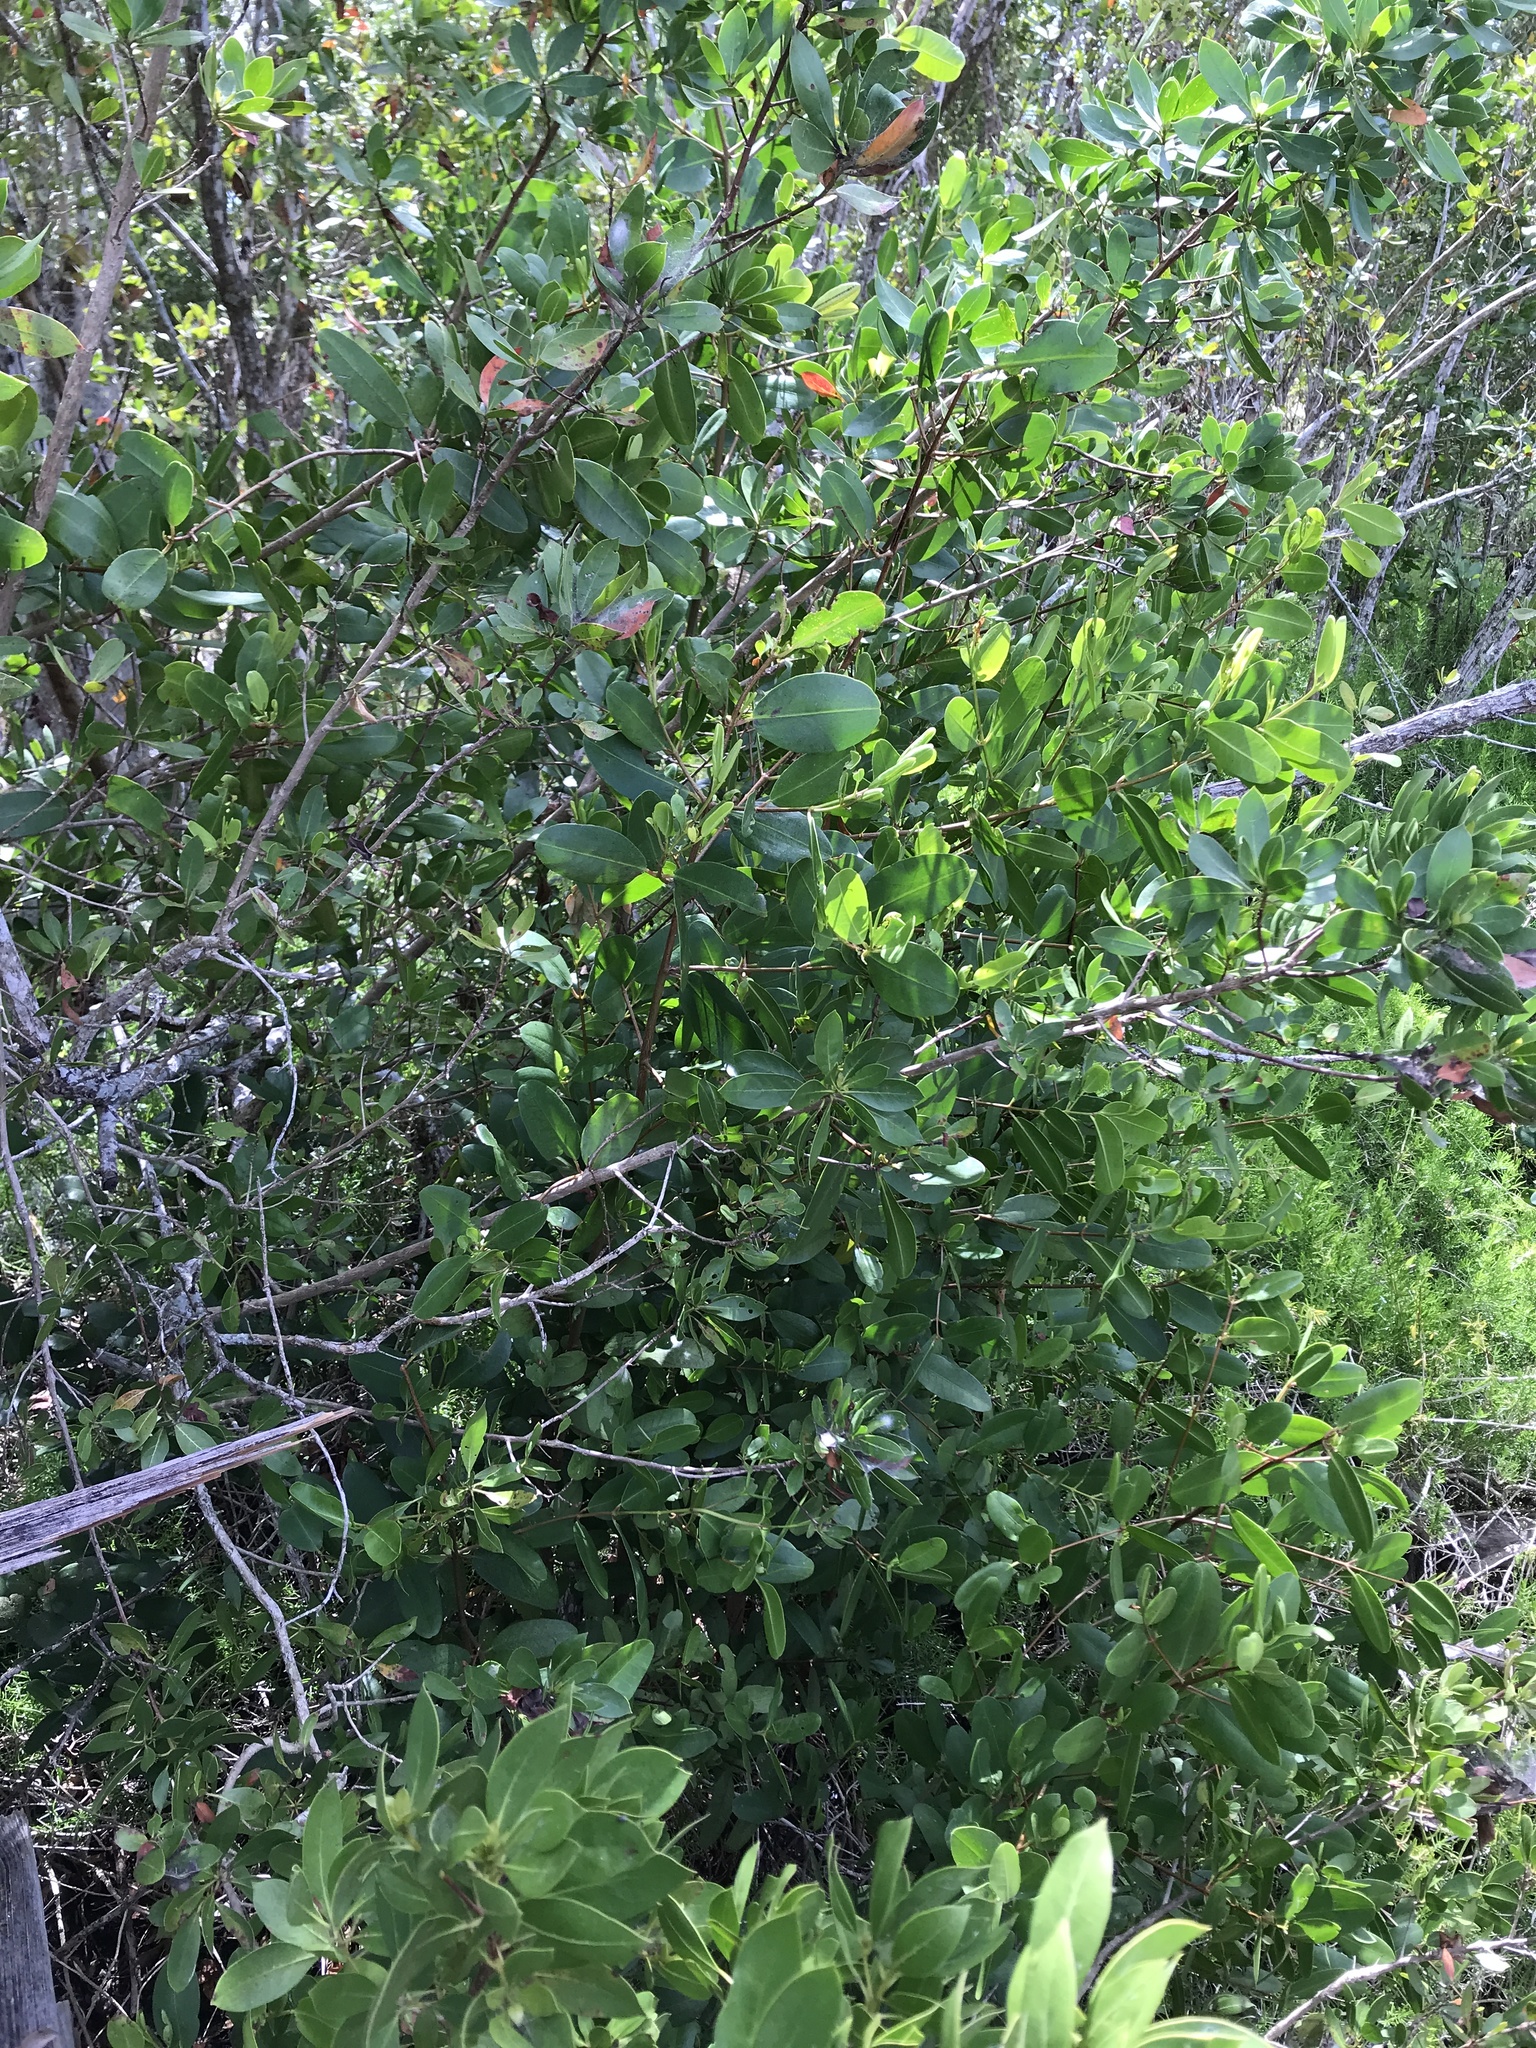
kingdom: Plantae
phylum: Tracheophyta
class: Magnoliopsida
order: Myrtales
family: Combretaceae
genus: Conocarpus
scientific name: Conocarpus erectus
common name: Button mangrove
